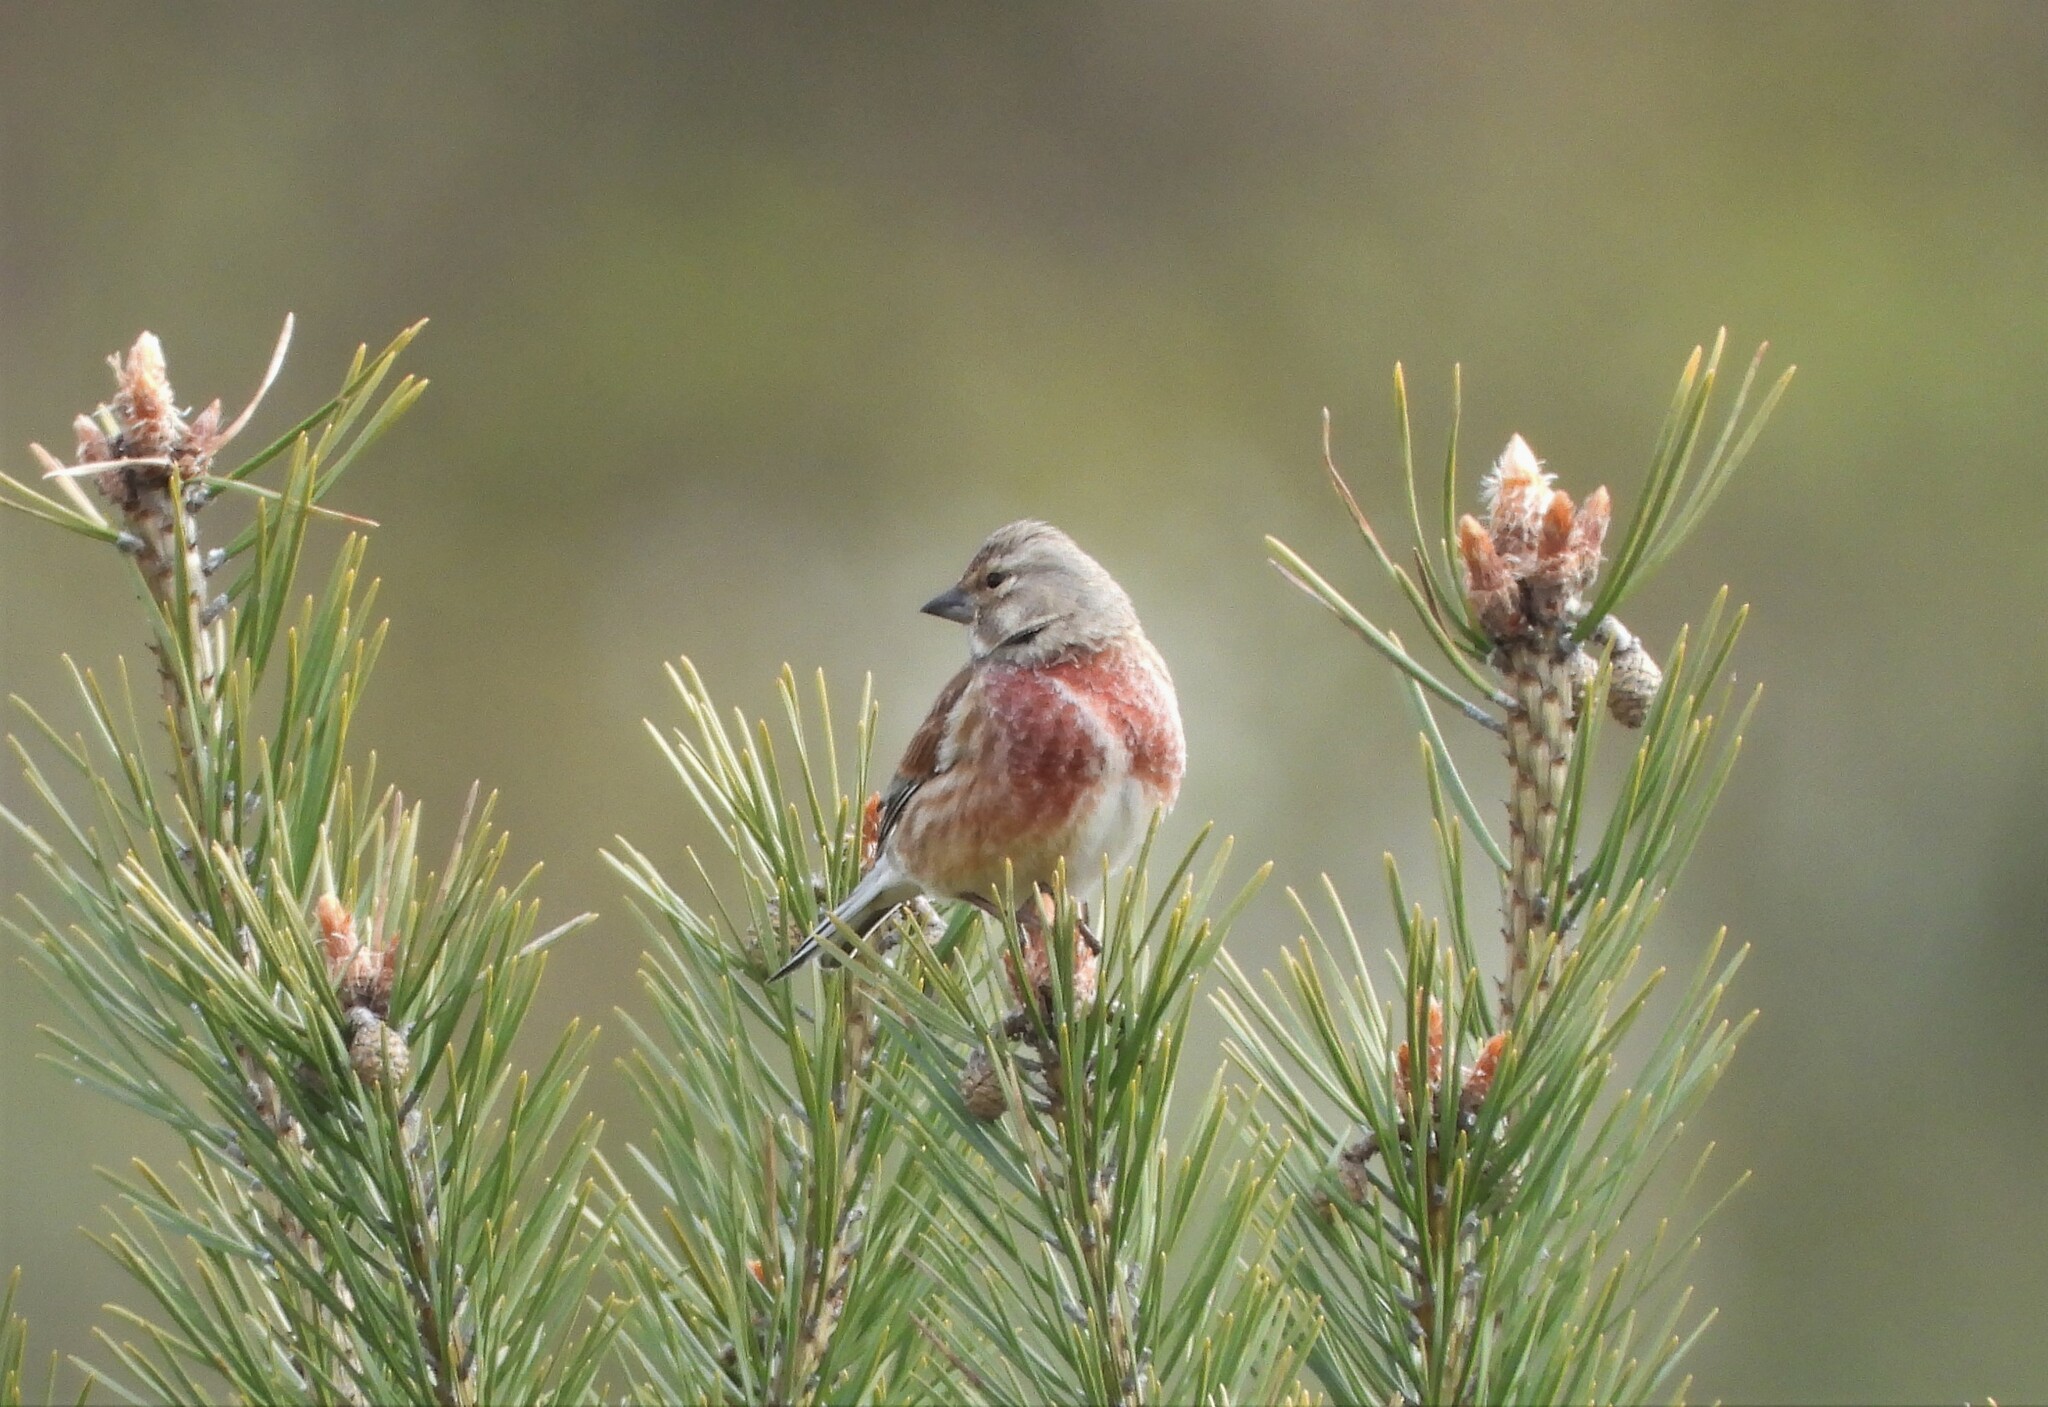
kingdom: Animalia
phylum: Chordata
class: Aves
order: Passeriformes
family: Fringillidae
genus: Linaria
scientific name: Linaria cannabina
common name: Common linnet
